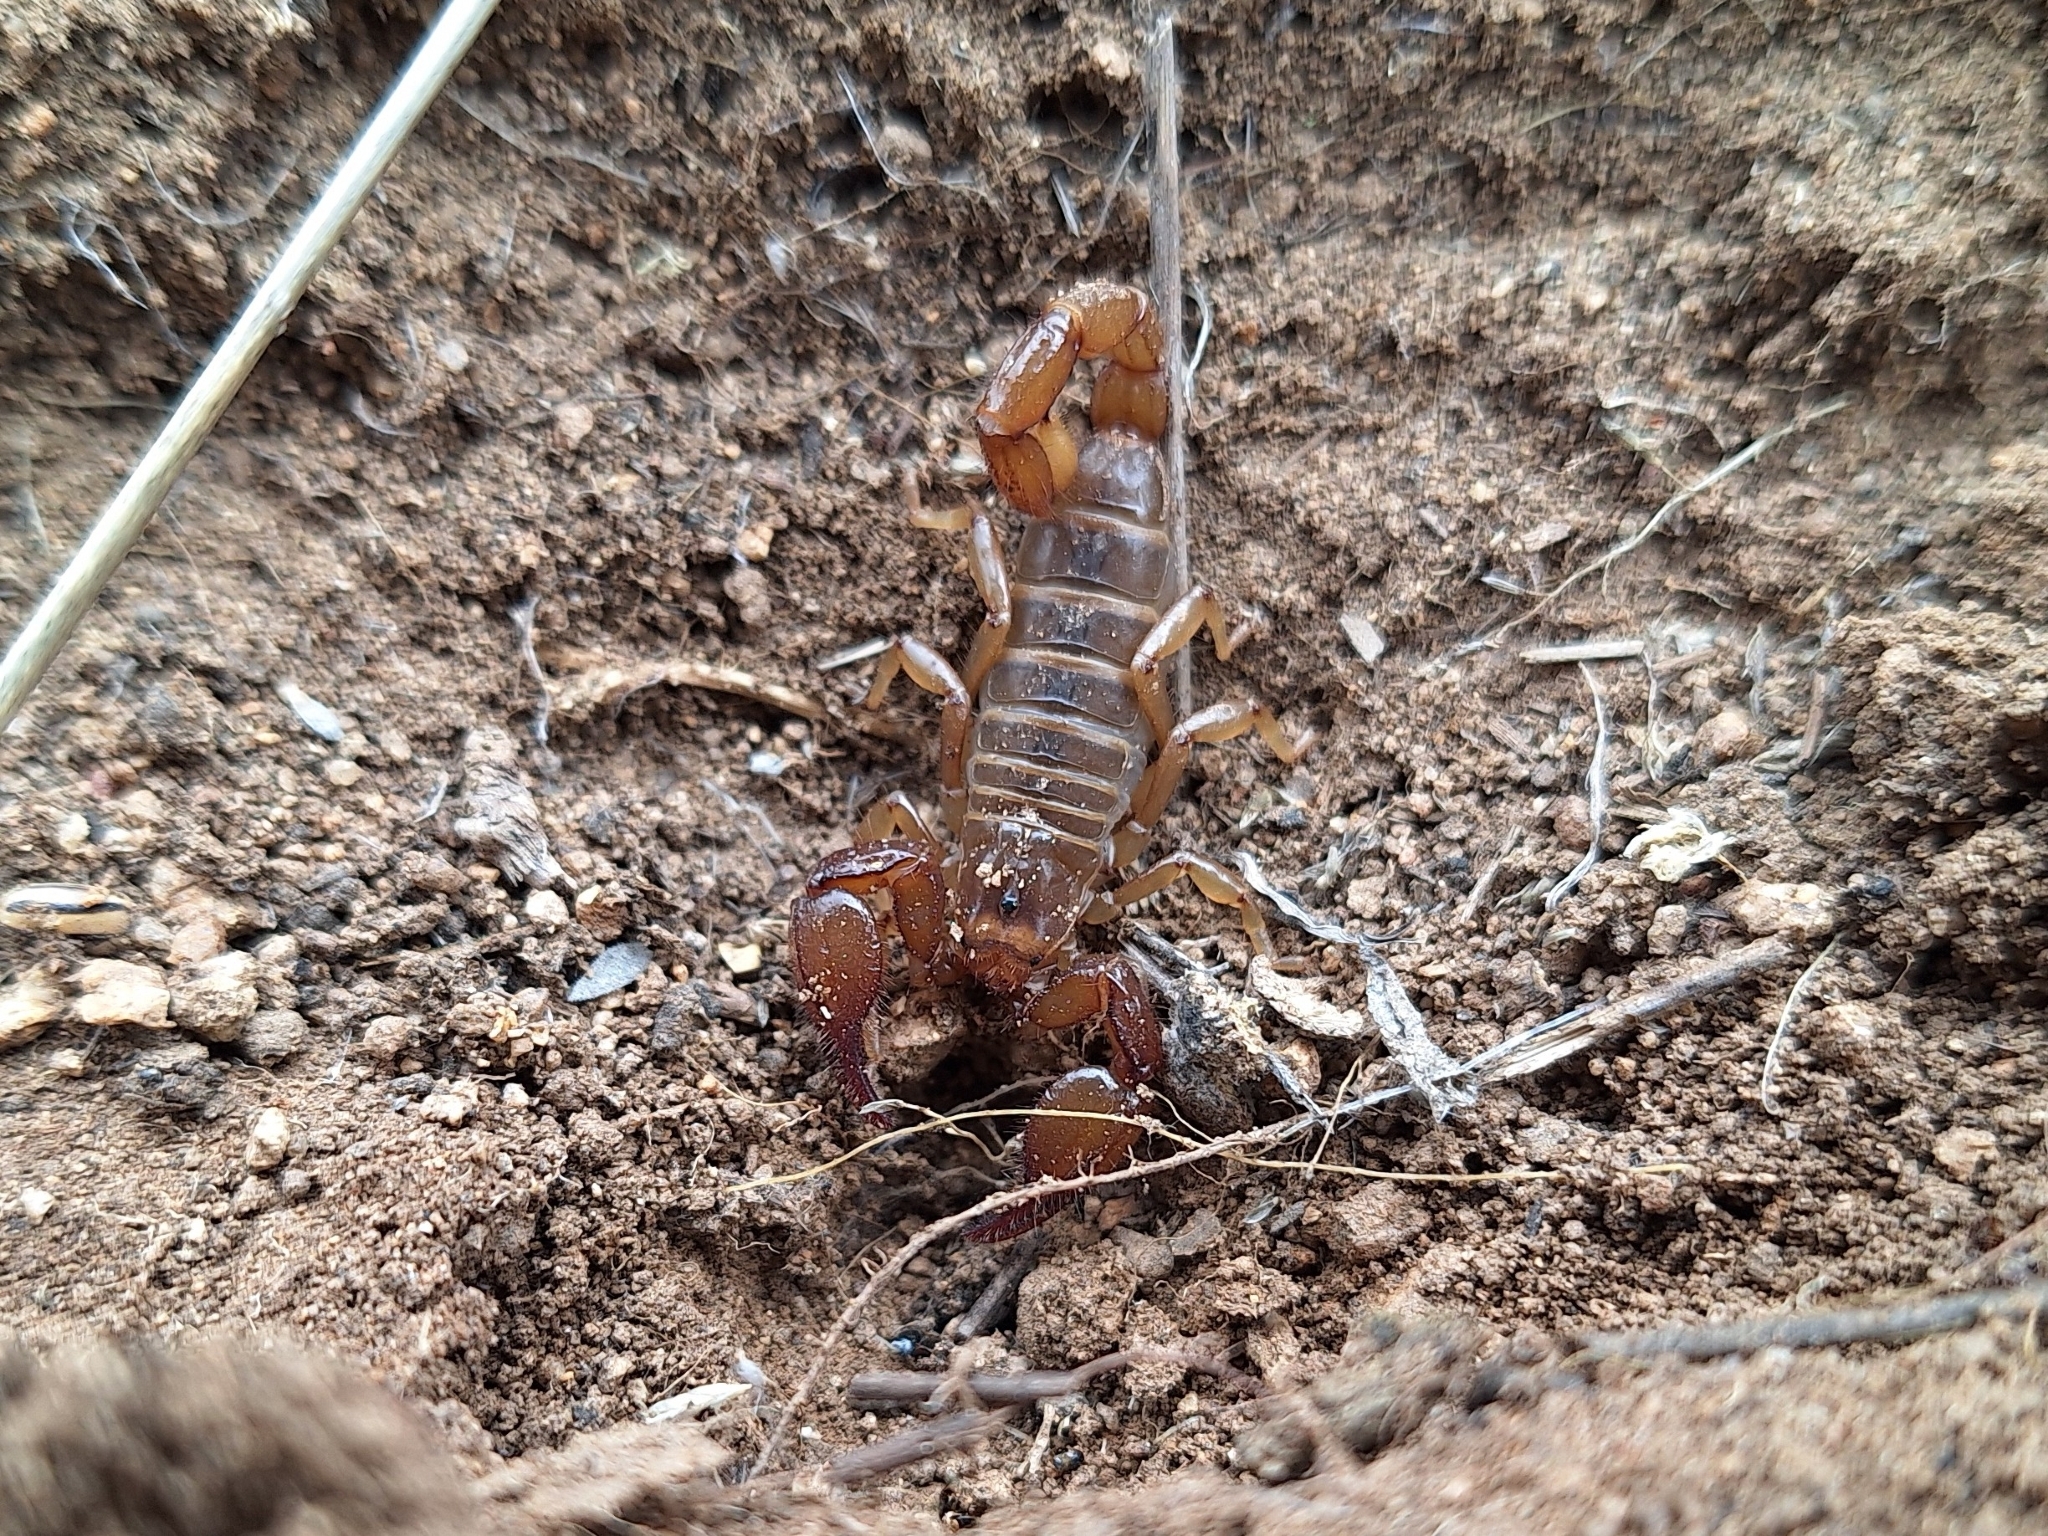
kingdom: Animalia
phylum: Arthropoda
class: Arachnida
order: Scorpiones
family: Diplocentridae
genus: Diplocentrus
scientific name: Diplocentrus spitzeri
